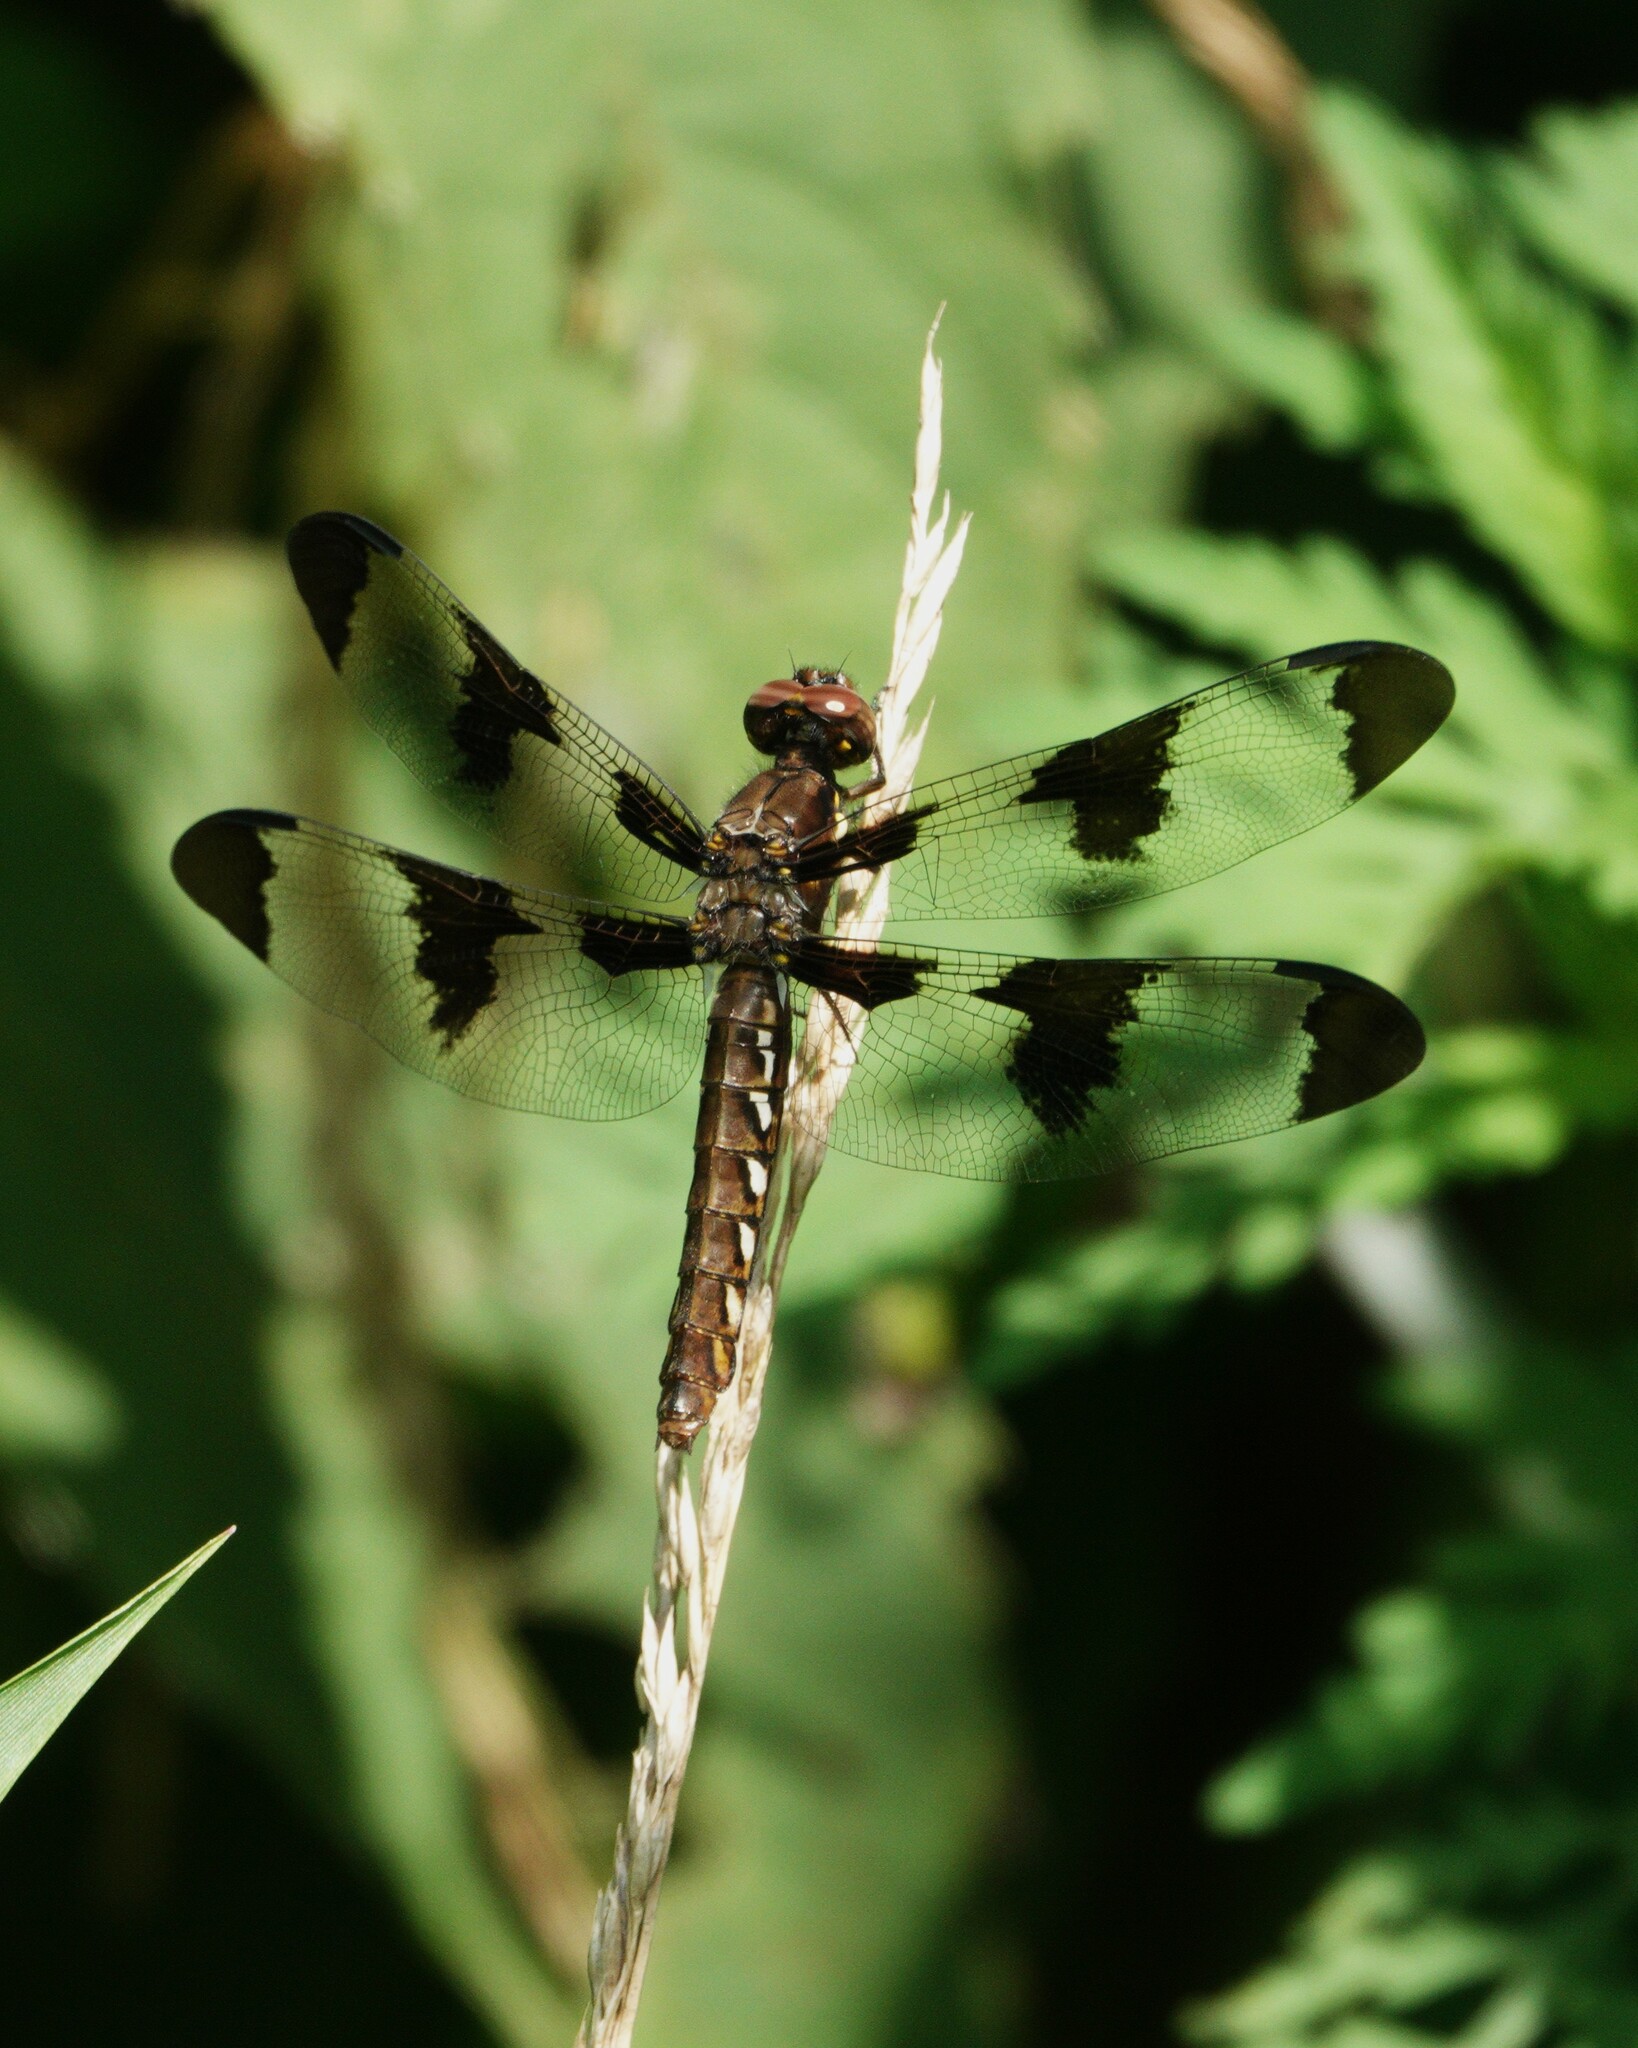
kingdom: Animalia
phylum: Arthropoda
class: Insecta
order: Odonata
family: Libellulidae
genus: Plathemis
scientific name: Plathemis lydia
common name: Common whitetail
